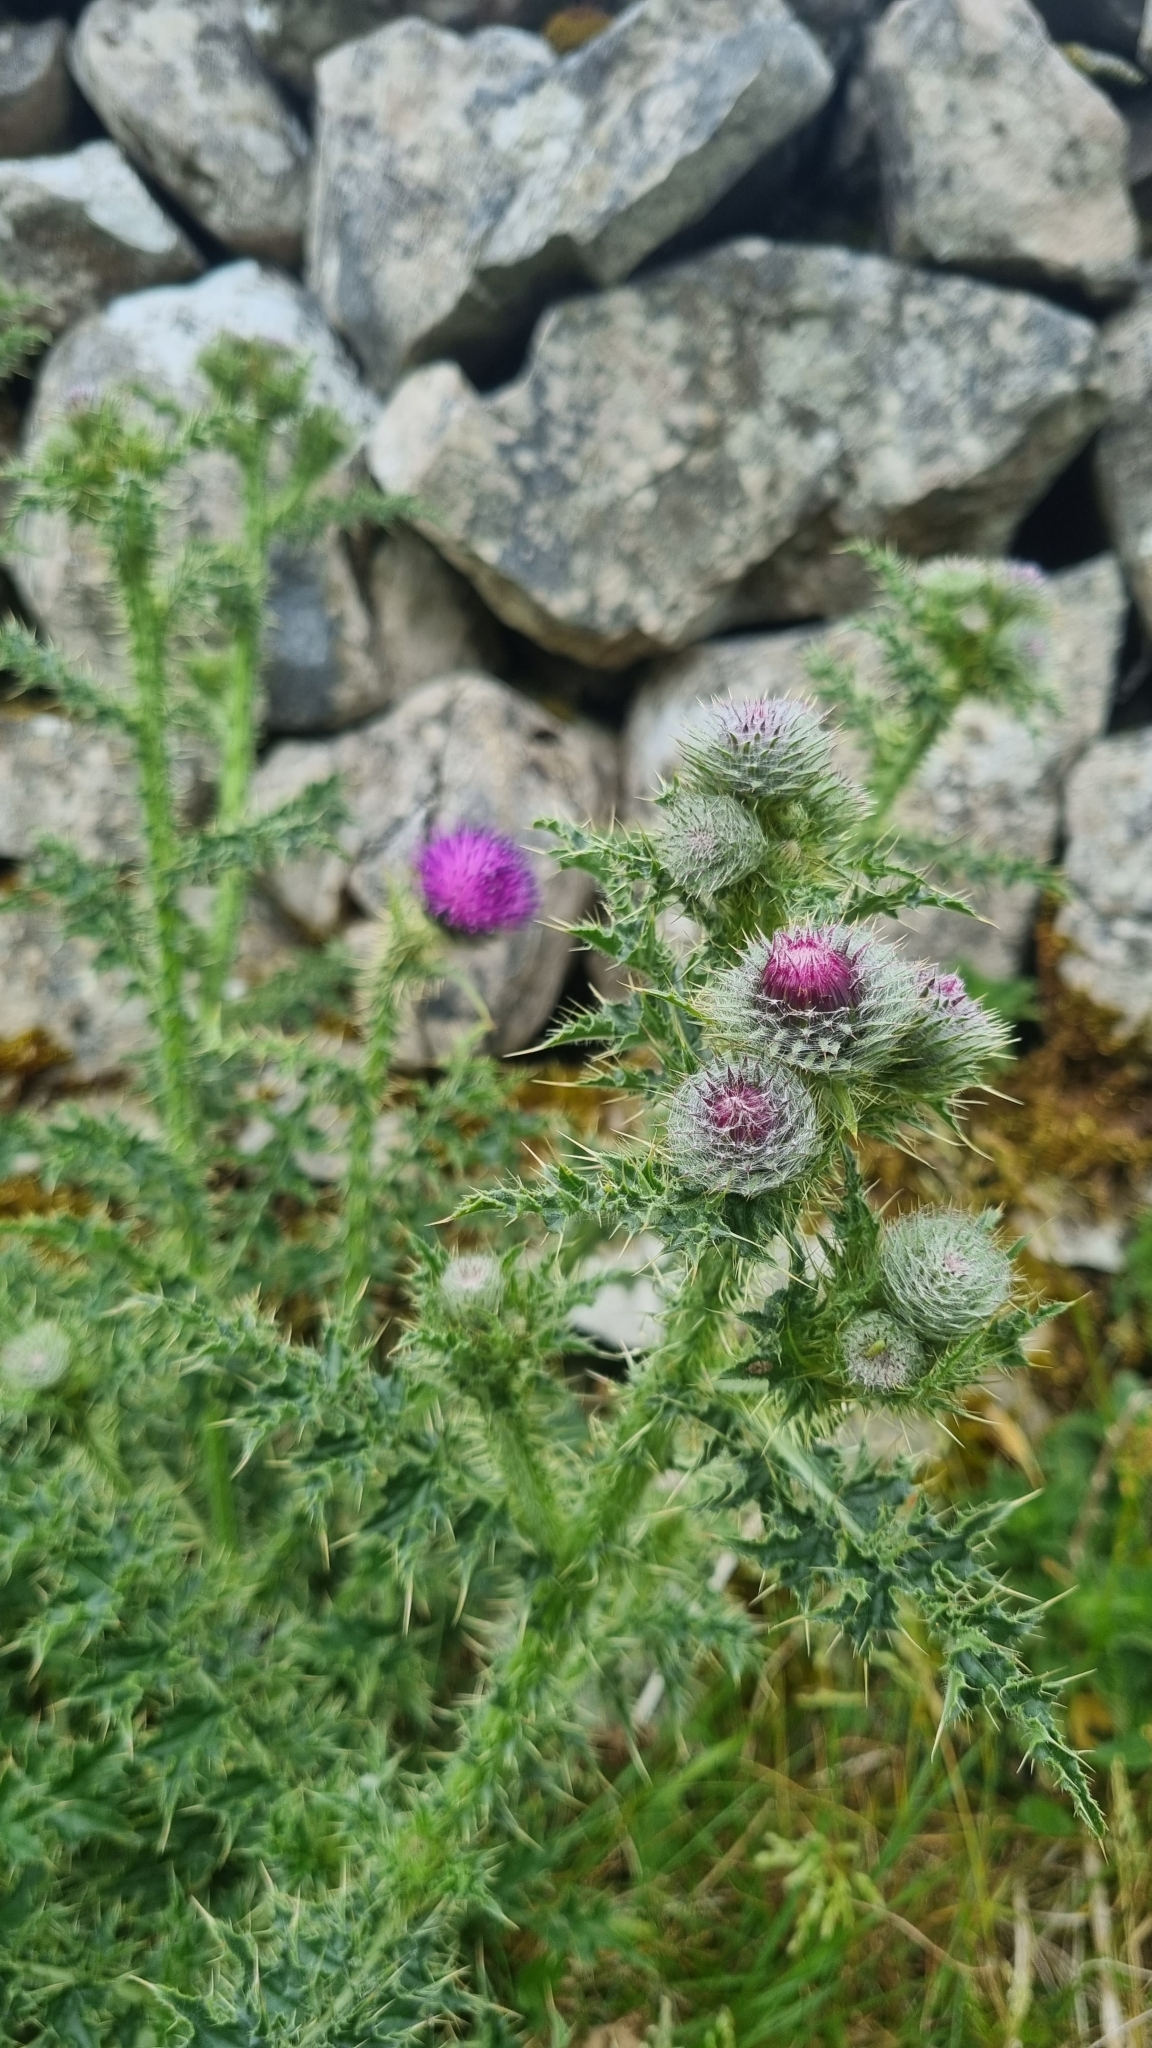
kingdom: Plantae
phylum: Tracheophyta
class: Magnoliopsida
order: Asterales
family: Asteraceae
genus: Carduus
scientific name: Carduus crispus
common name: Welted thistle
